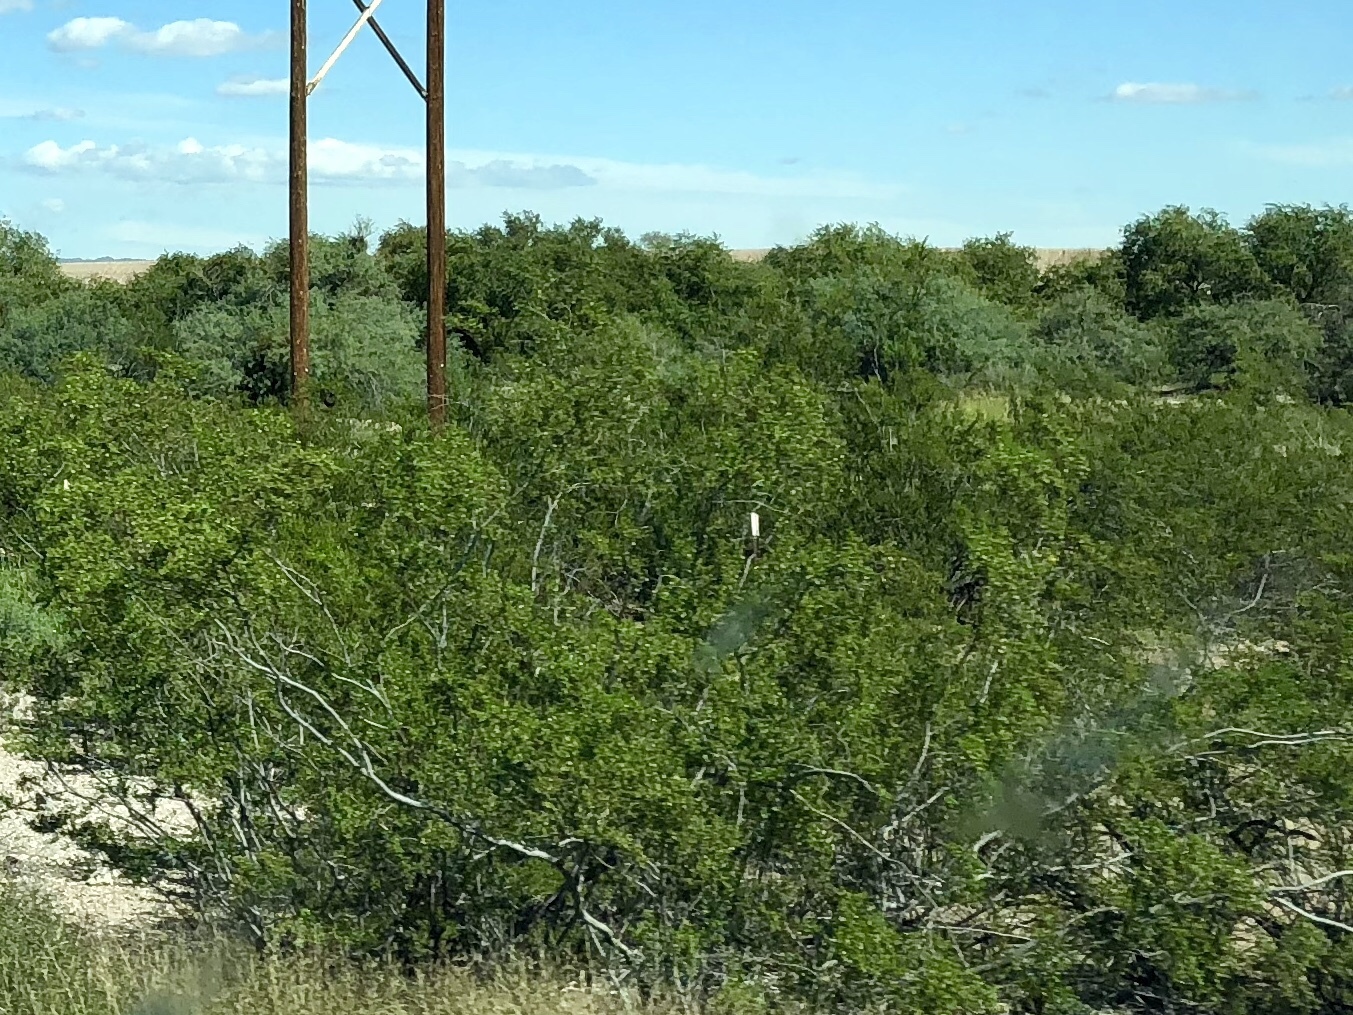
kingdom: Plantae
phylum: Tracheophyta
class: Magnoliopsida
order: Zygophyllales
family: Zygophyllaceae
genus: Larrea
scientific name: Larrea tridentata
